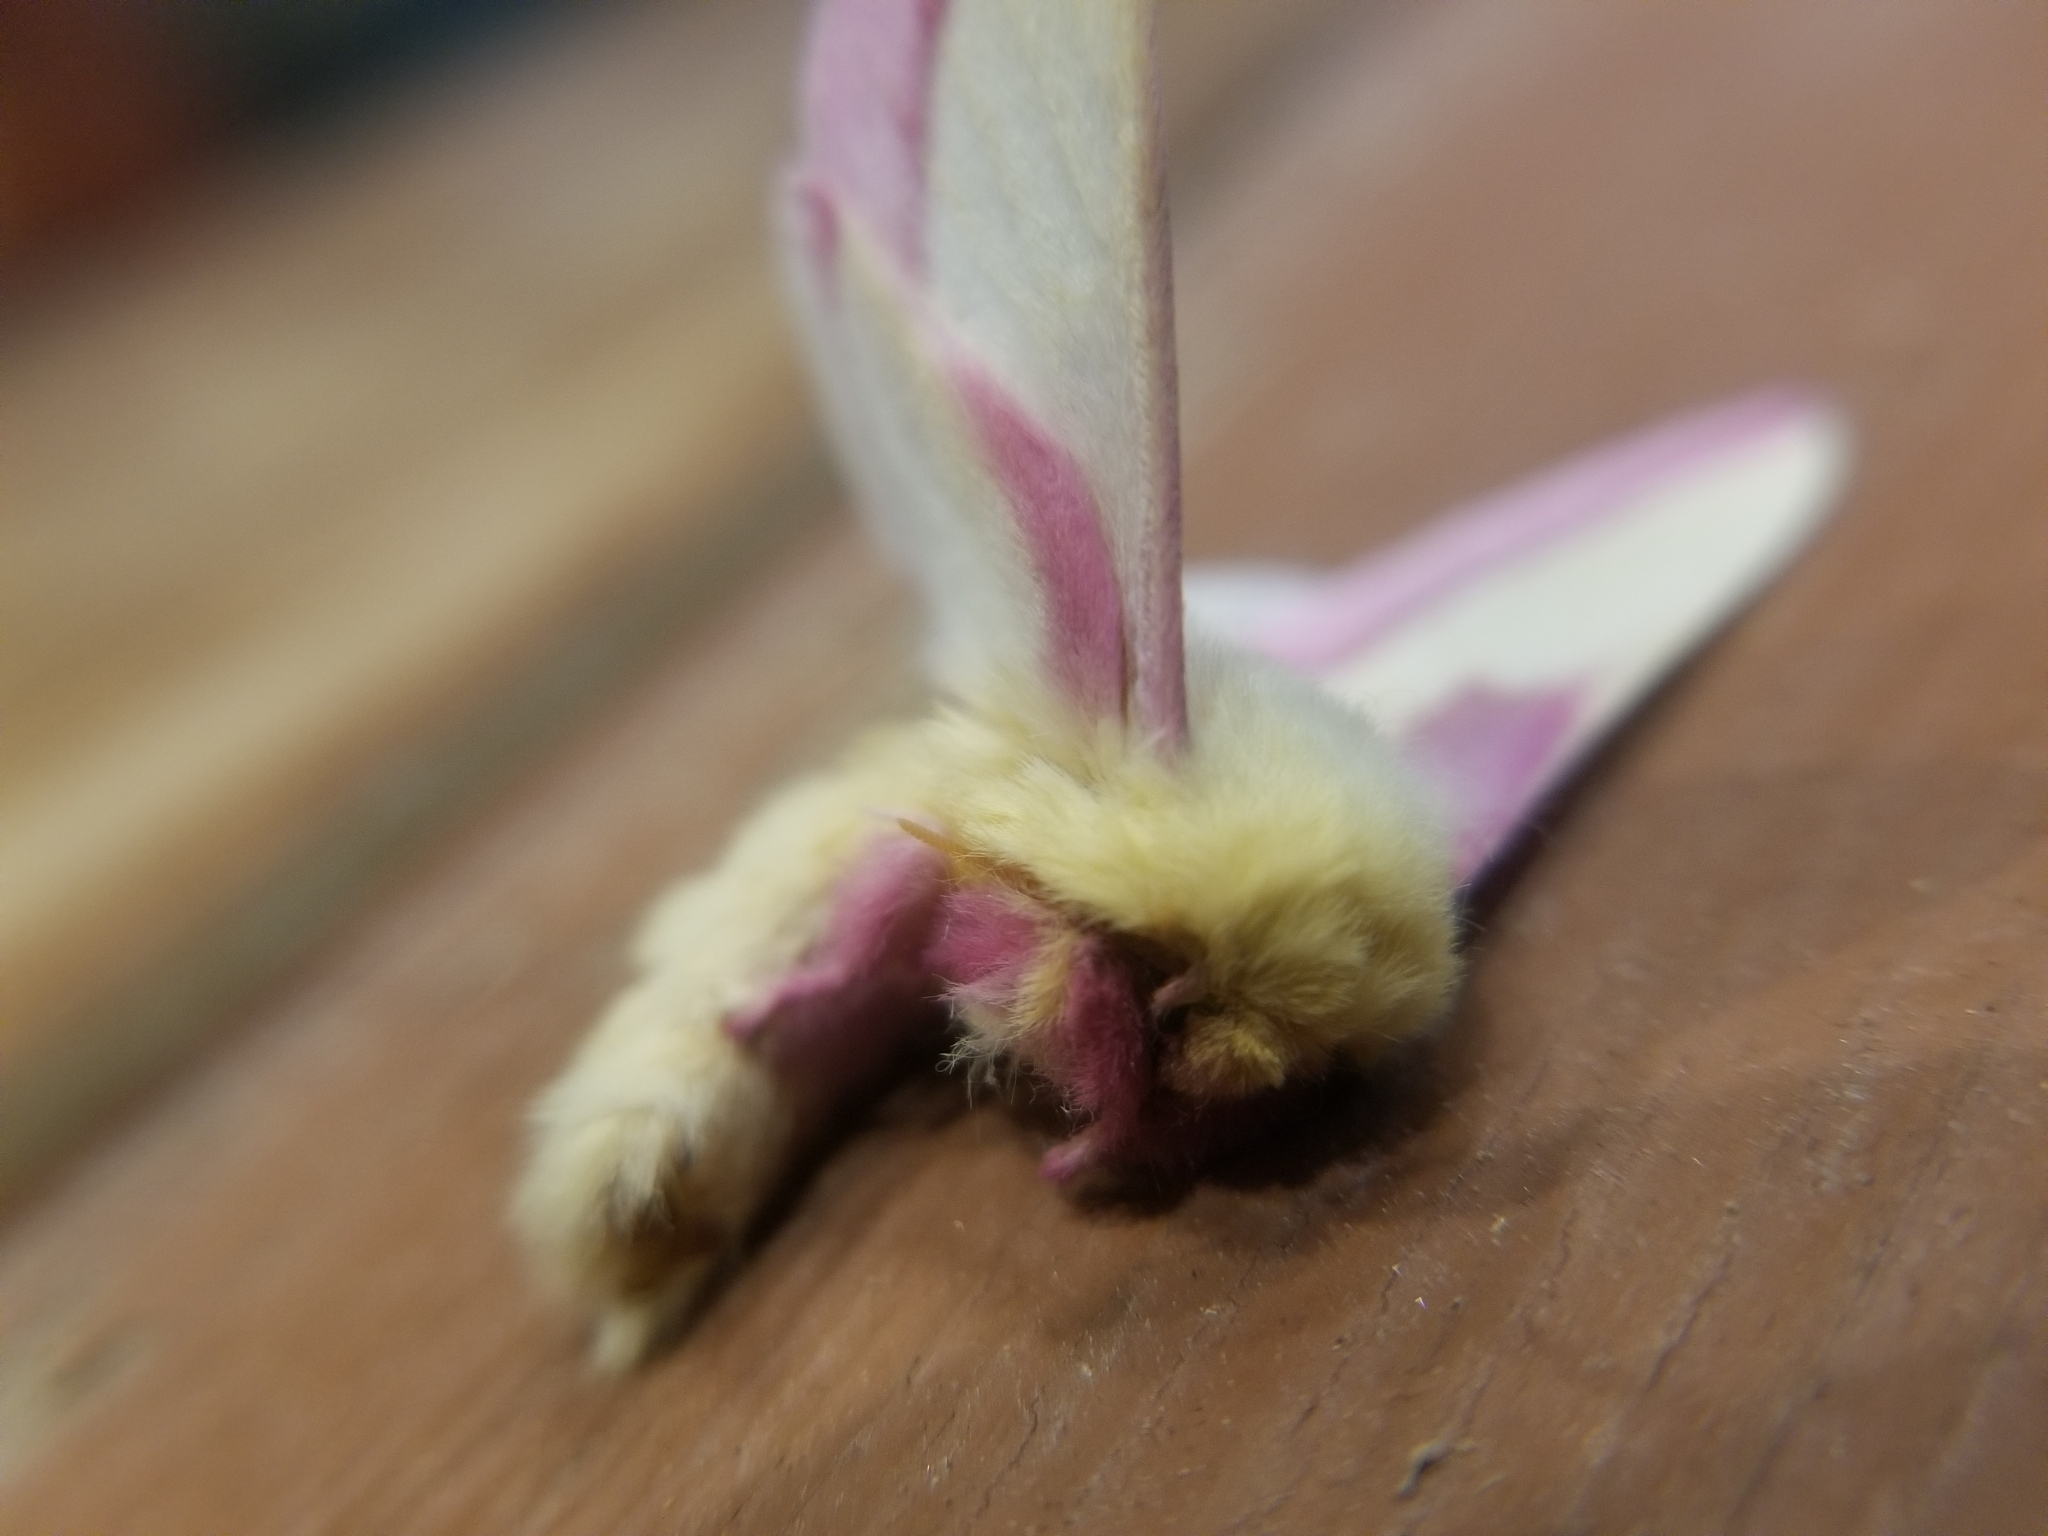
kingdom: Animalia
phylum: Arthropoda
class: Insecta
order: Lepidoptera
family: Saturniidae
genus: Dryocampa
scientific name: Dryocampa rubicunda
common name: Rosy maple moth
